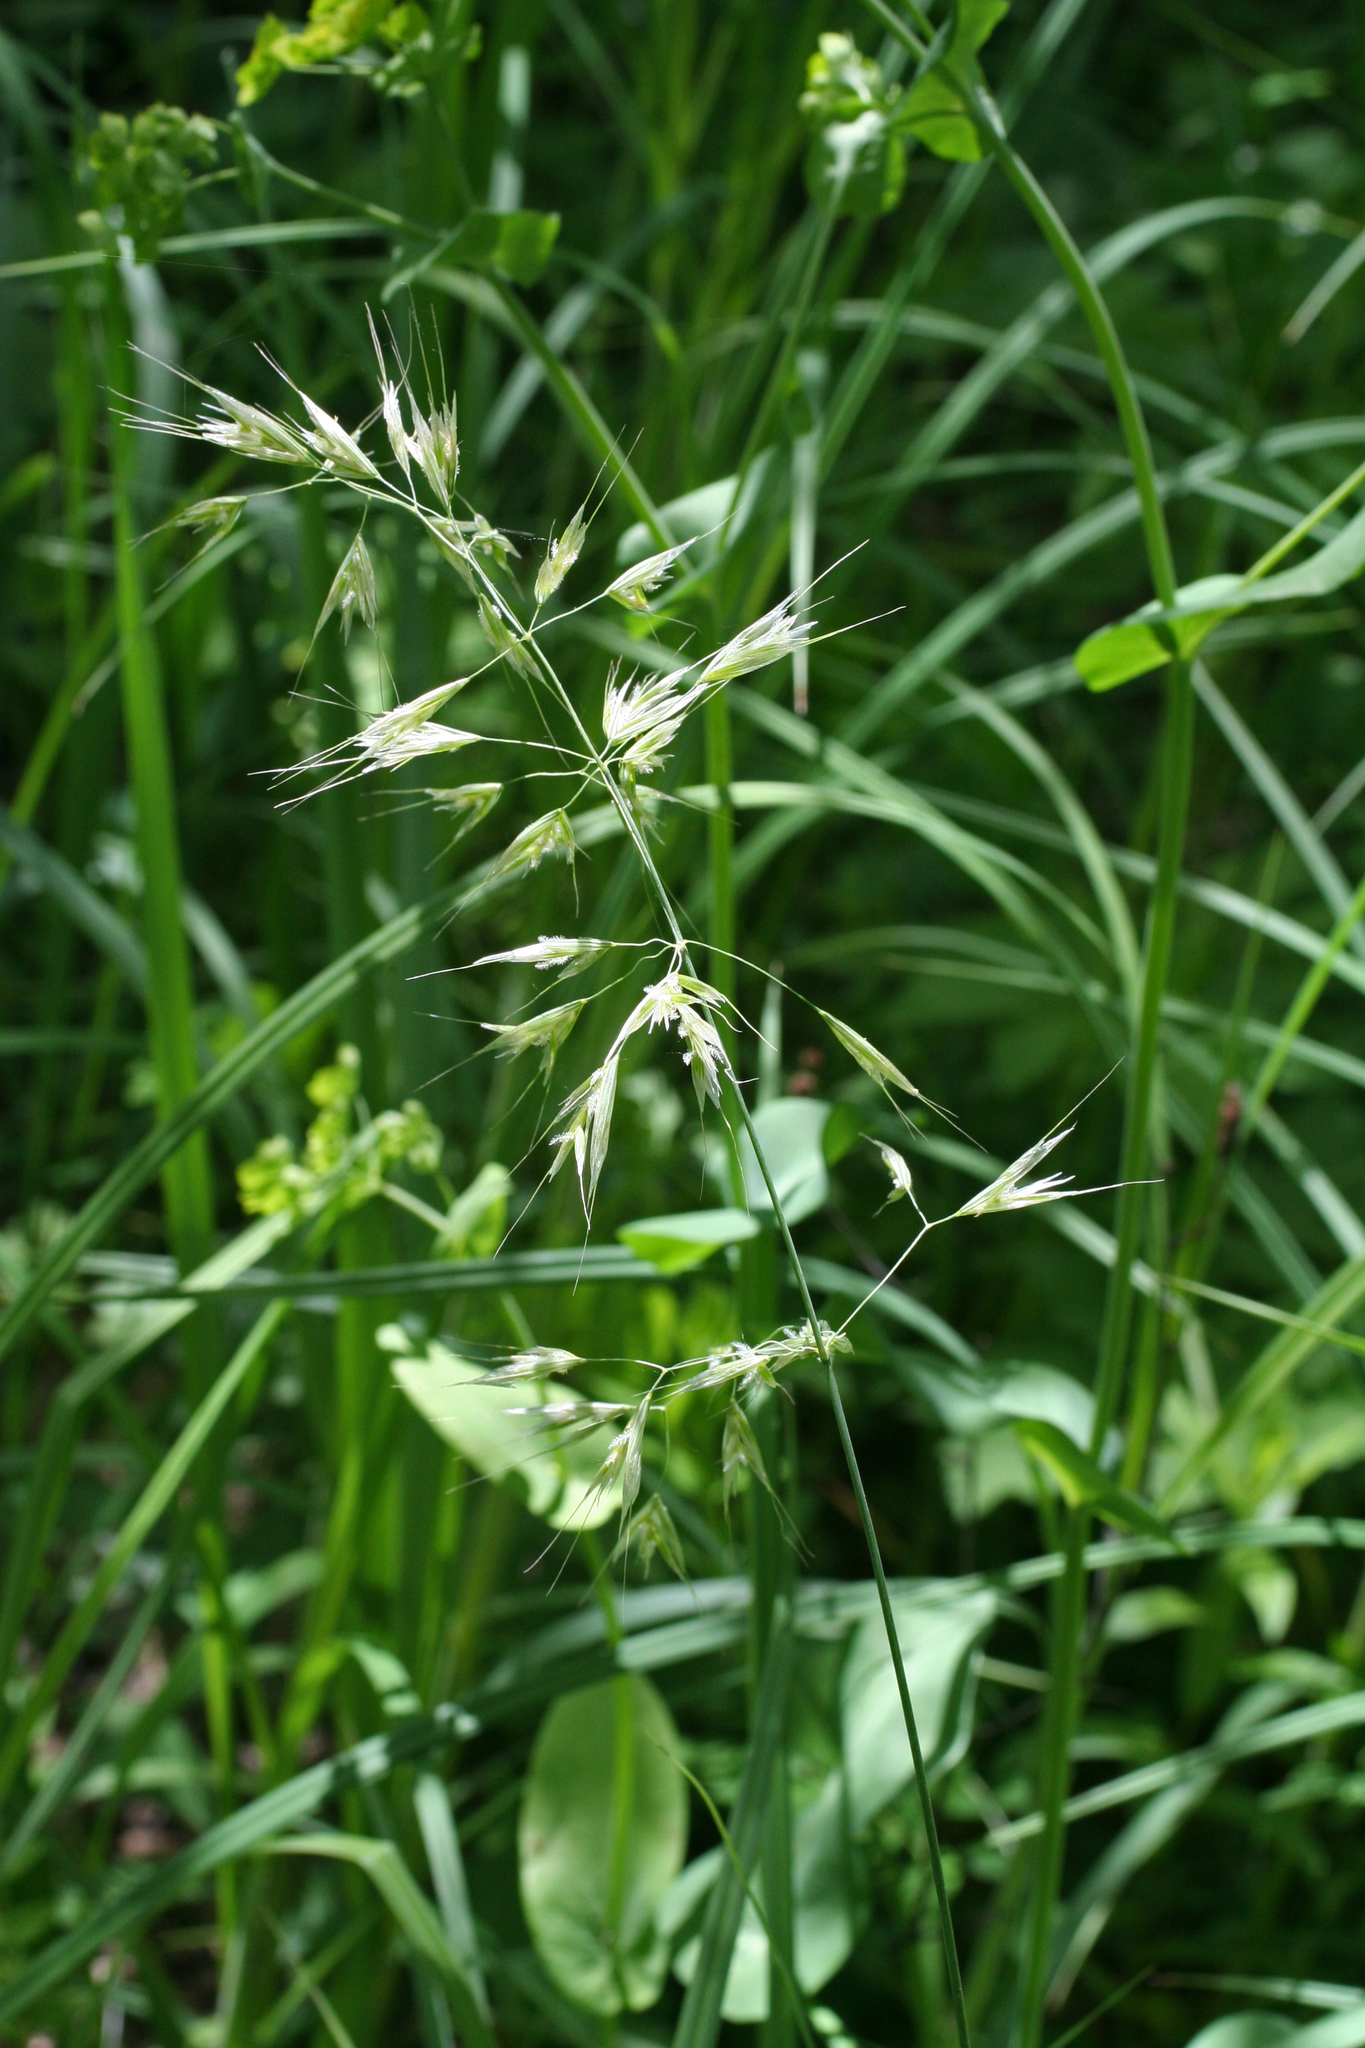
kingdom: Plantae
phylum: Tracheophyta
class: Liliopsida
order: Poales
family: Poaceae
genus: Avenula
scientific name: Avenula pubescens
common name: Downy alpine oatgrass
